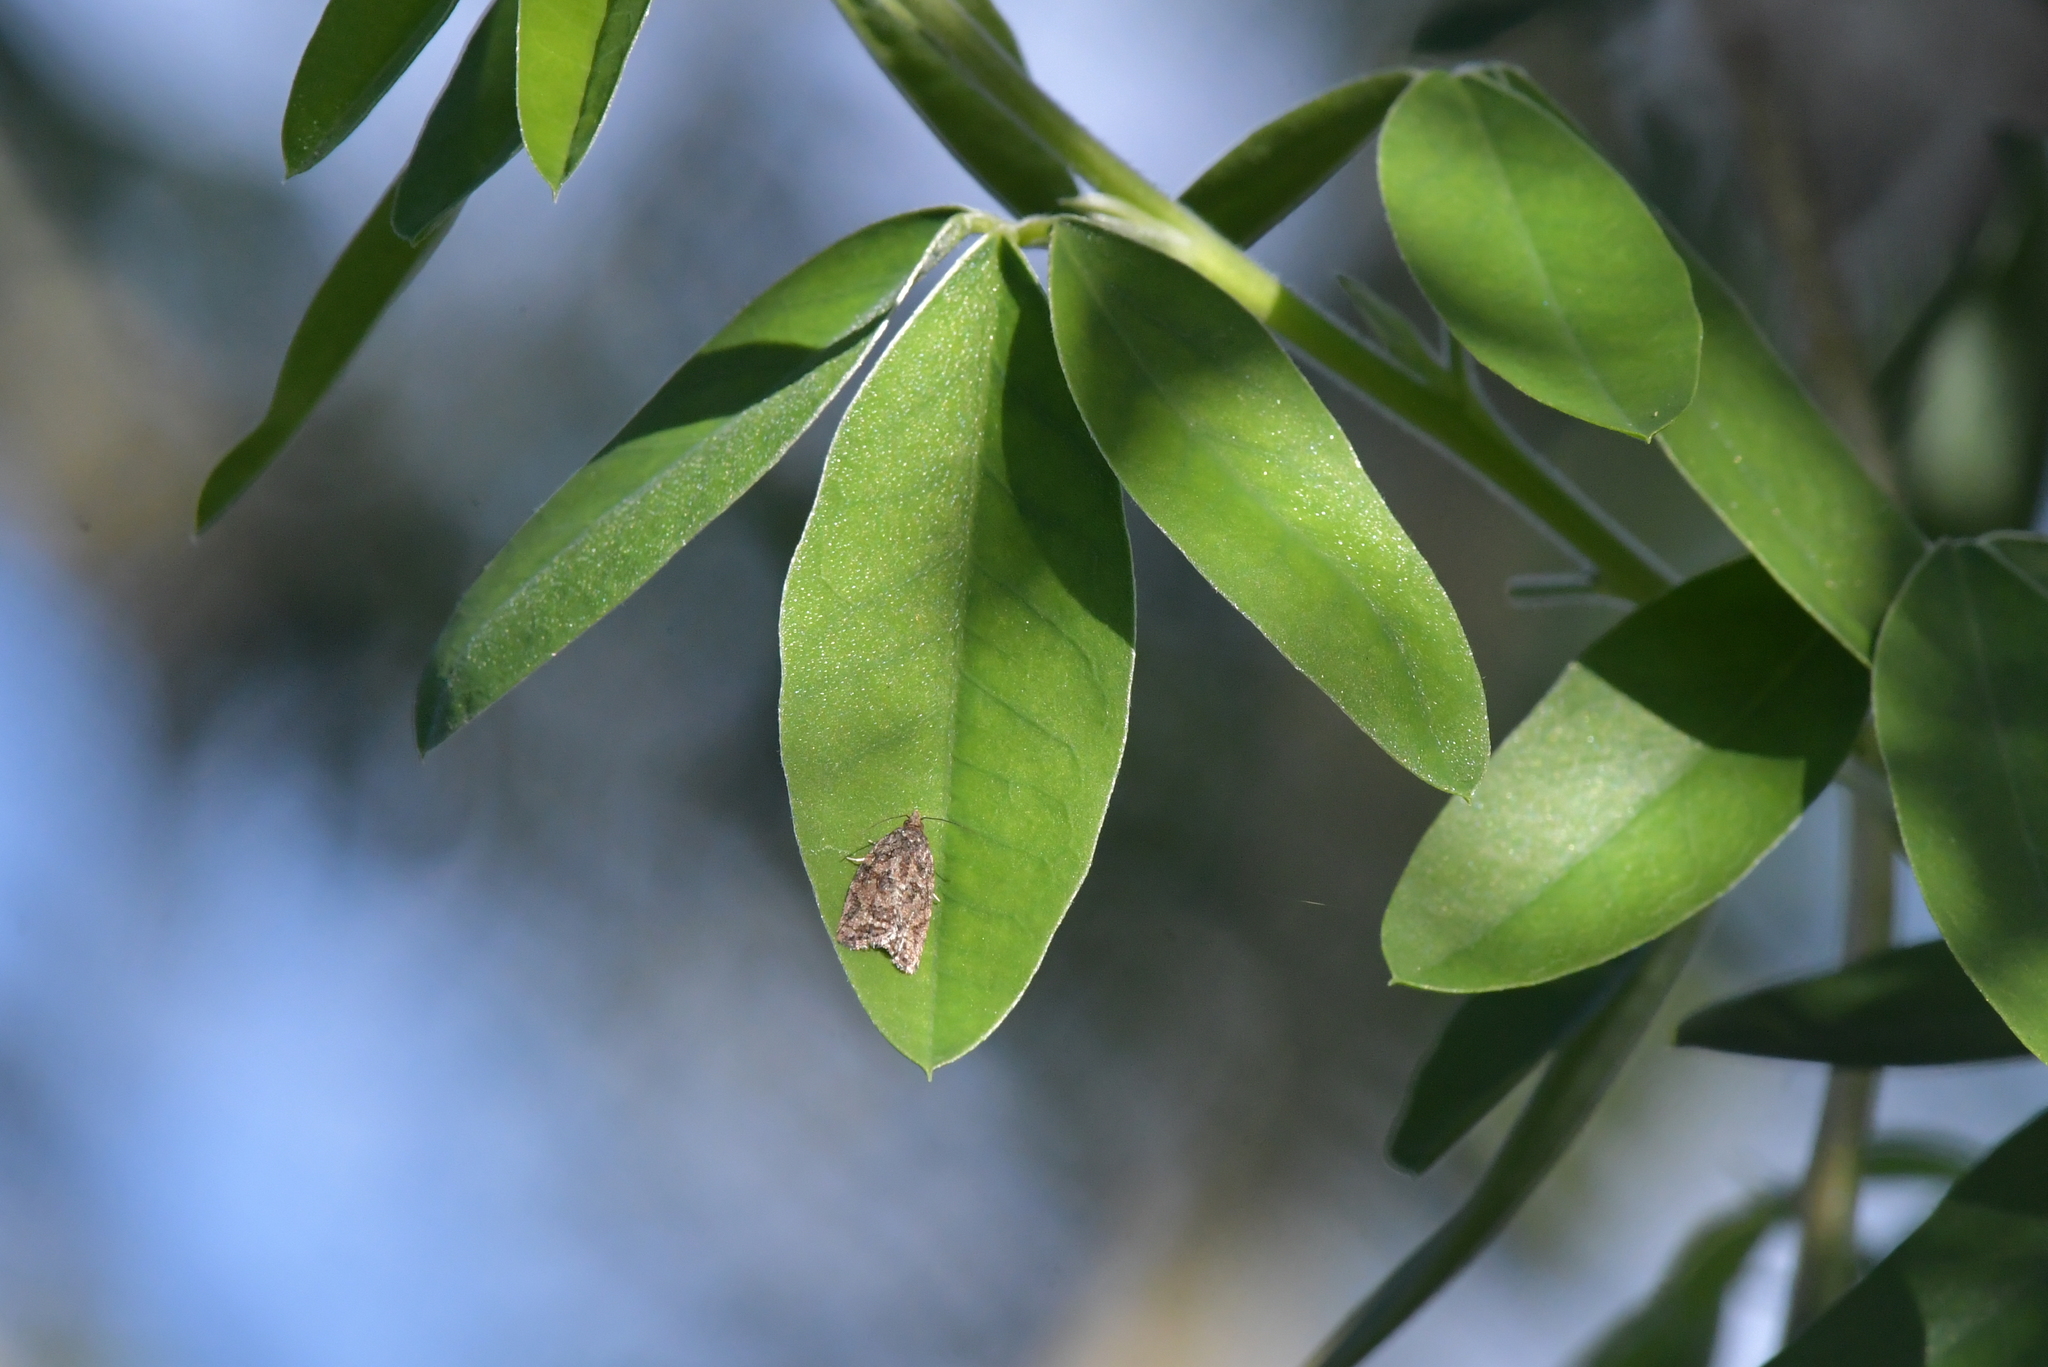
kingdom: Animalia
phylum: Arthropoda
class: Insecta
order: Lepidoptera
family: Tortricidae
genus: Capua
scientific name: Capua intractana
